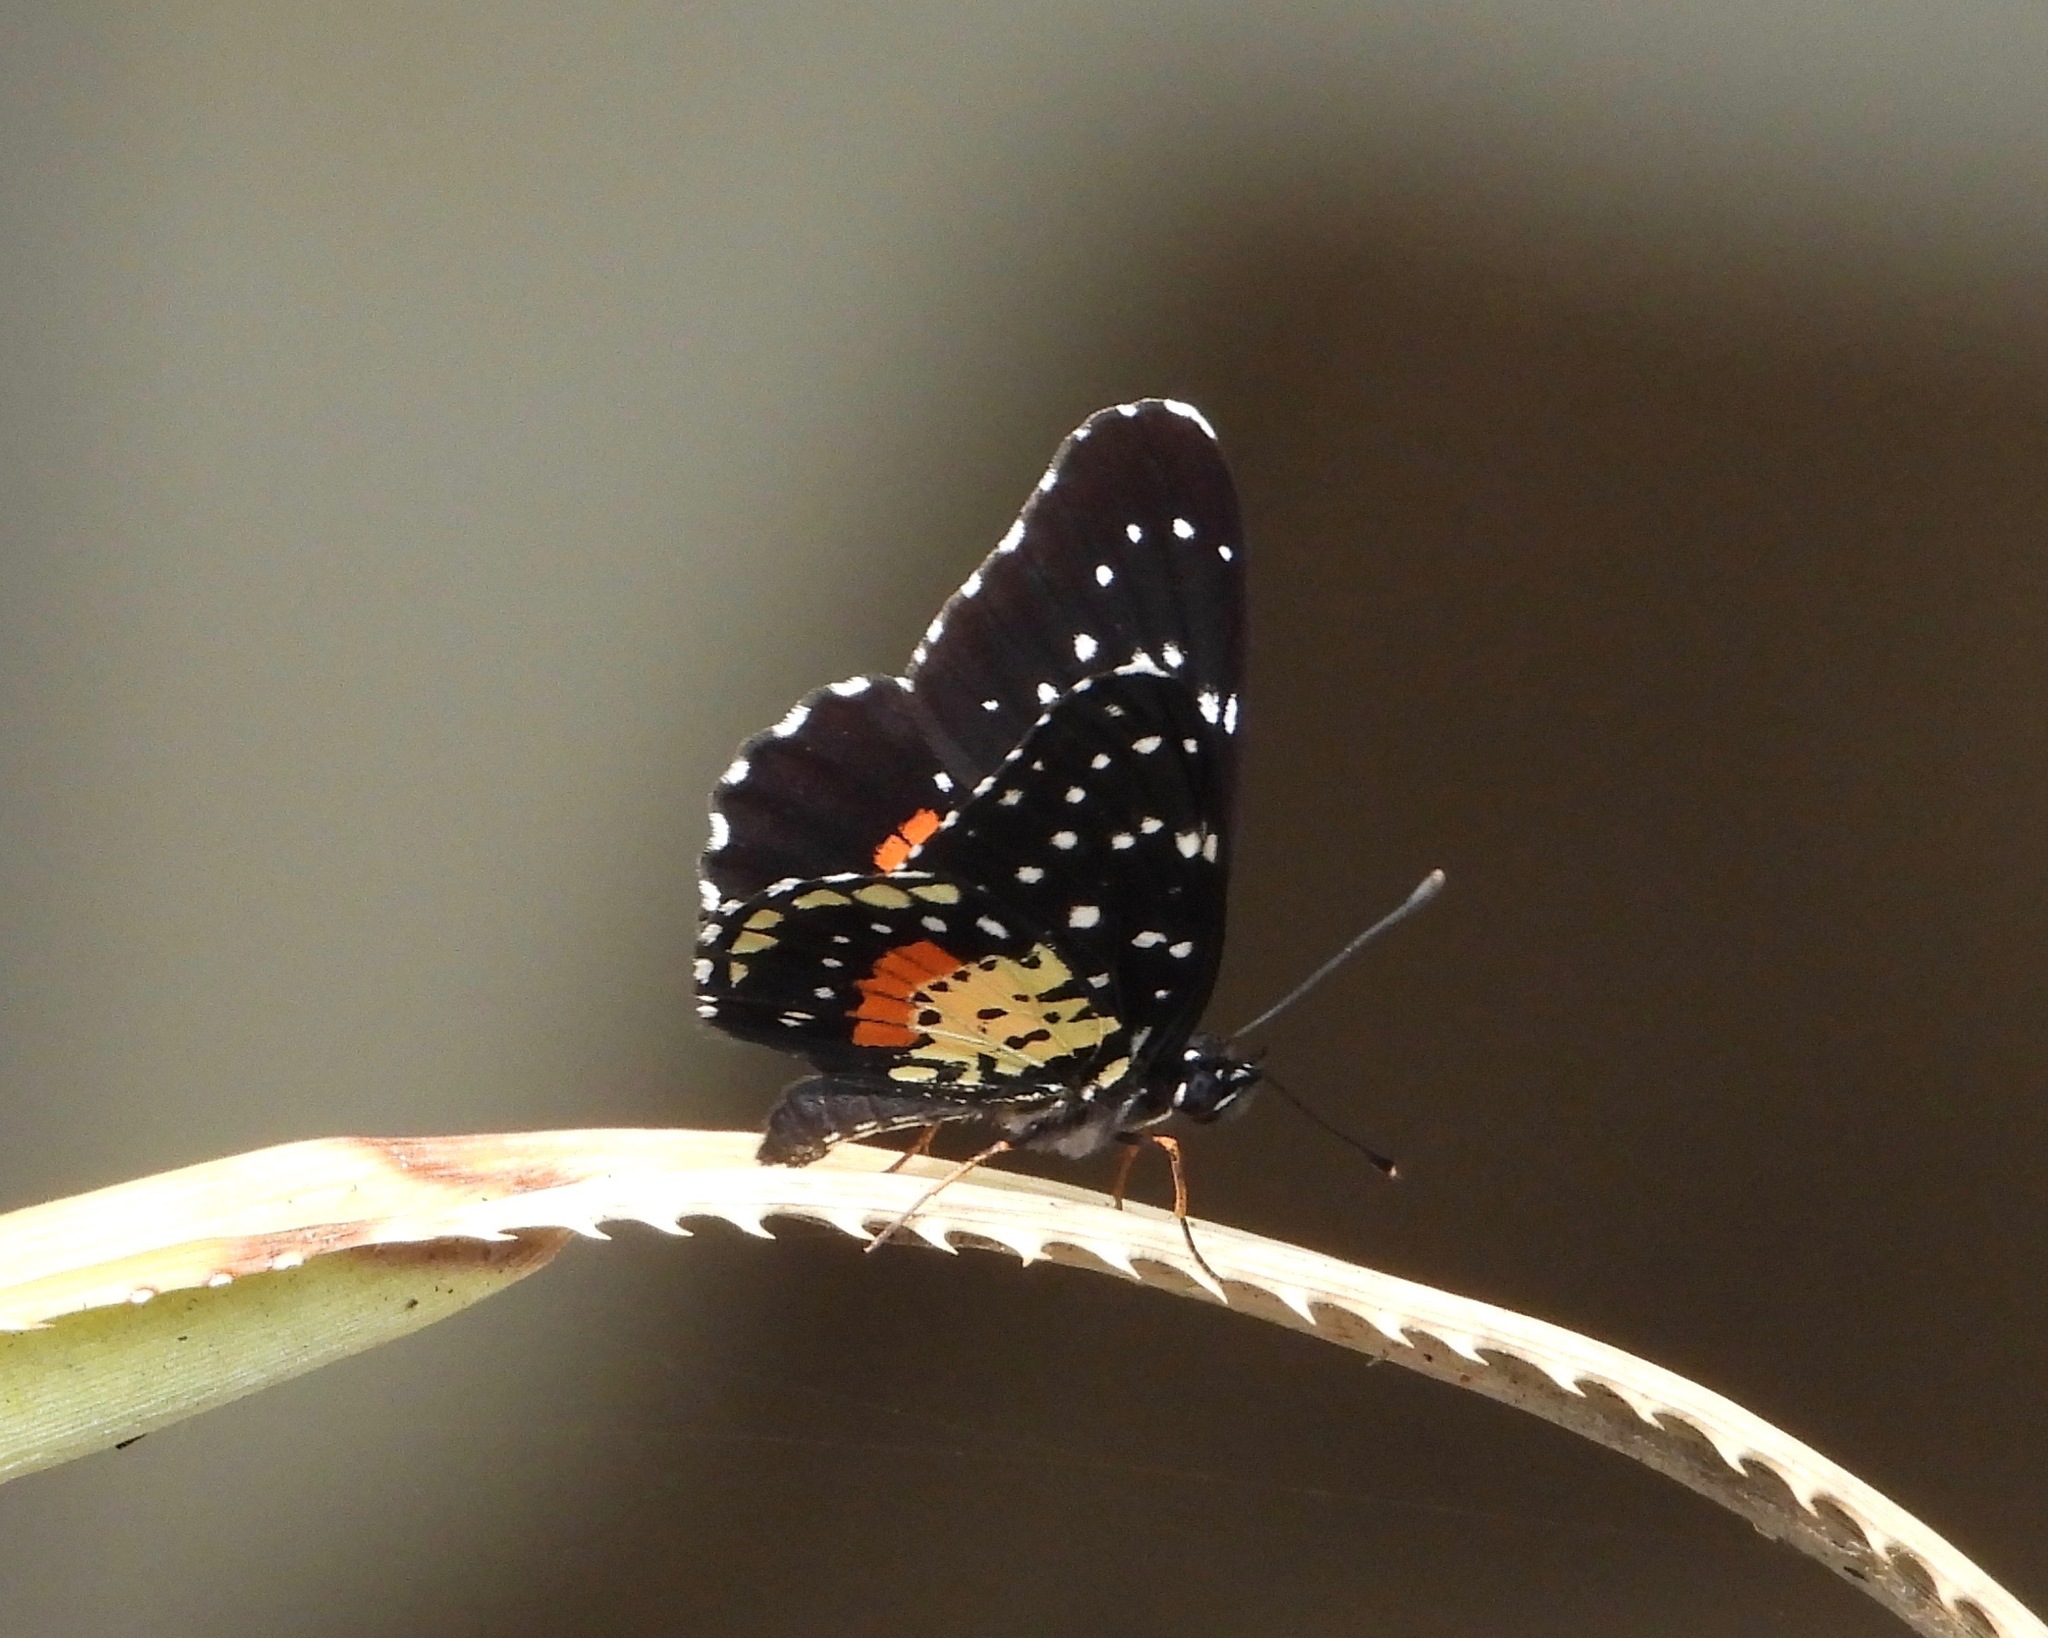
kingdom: Animalia
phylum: Arthropoda
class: Insecta
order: Lepidoptera
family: Nymphalidae
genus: Chlosyne
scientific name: Chlosyne janais
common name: Crimson patch
